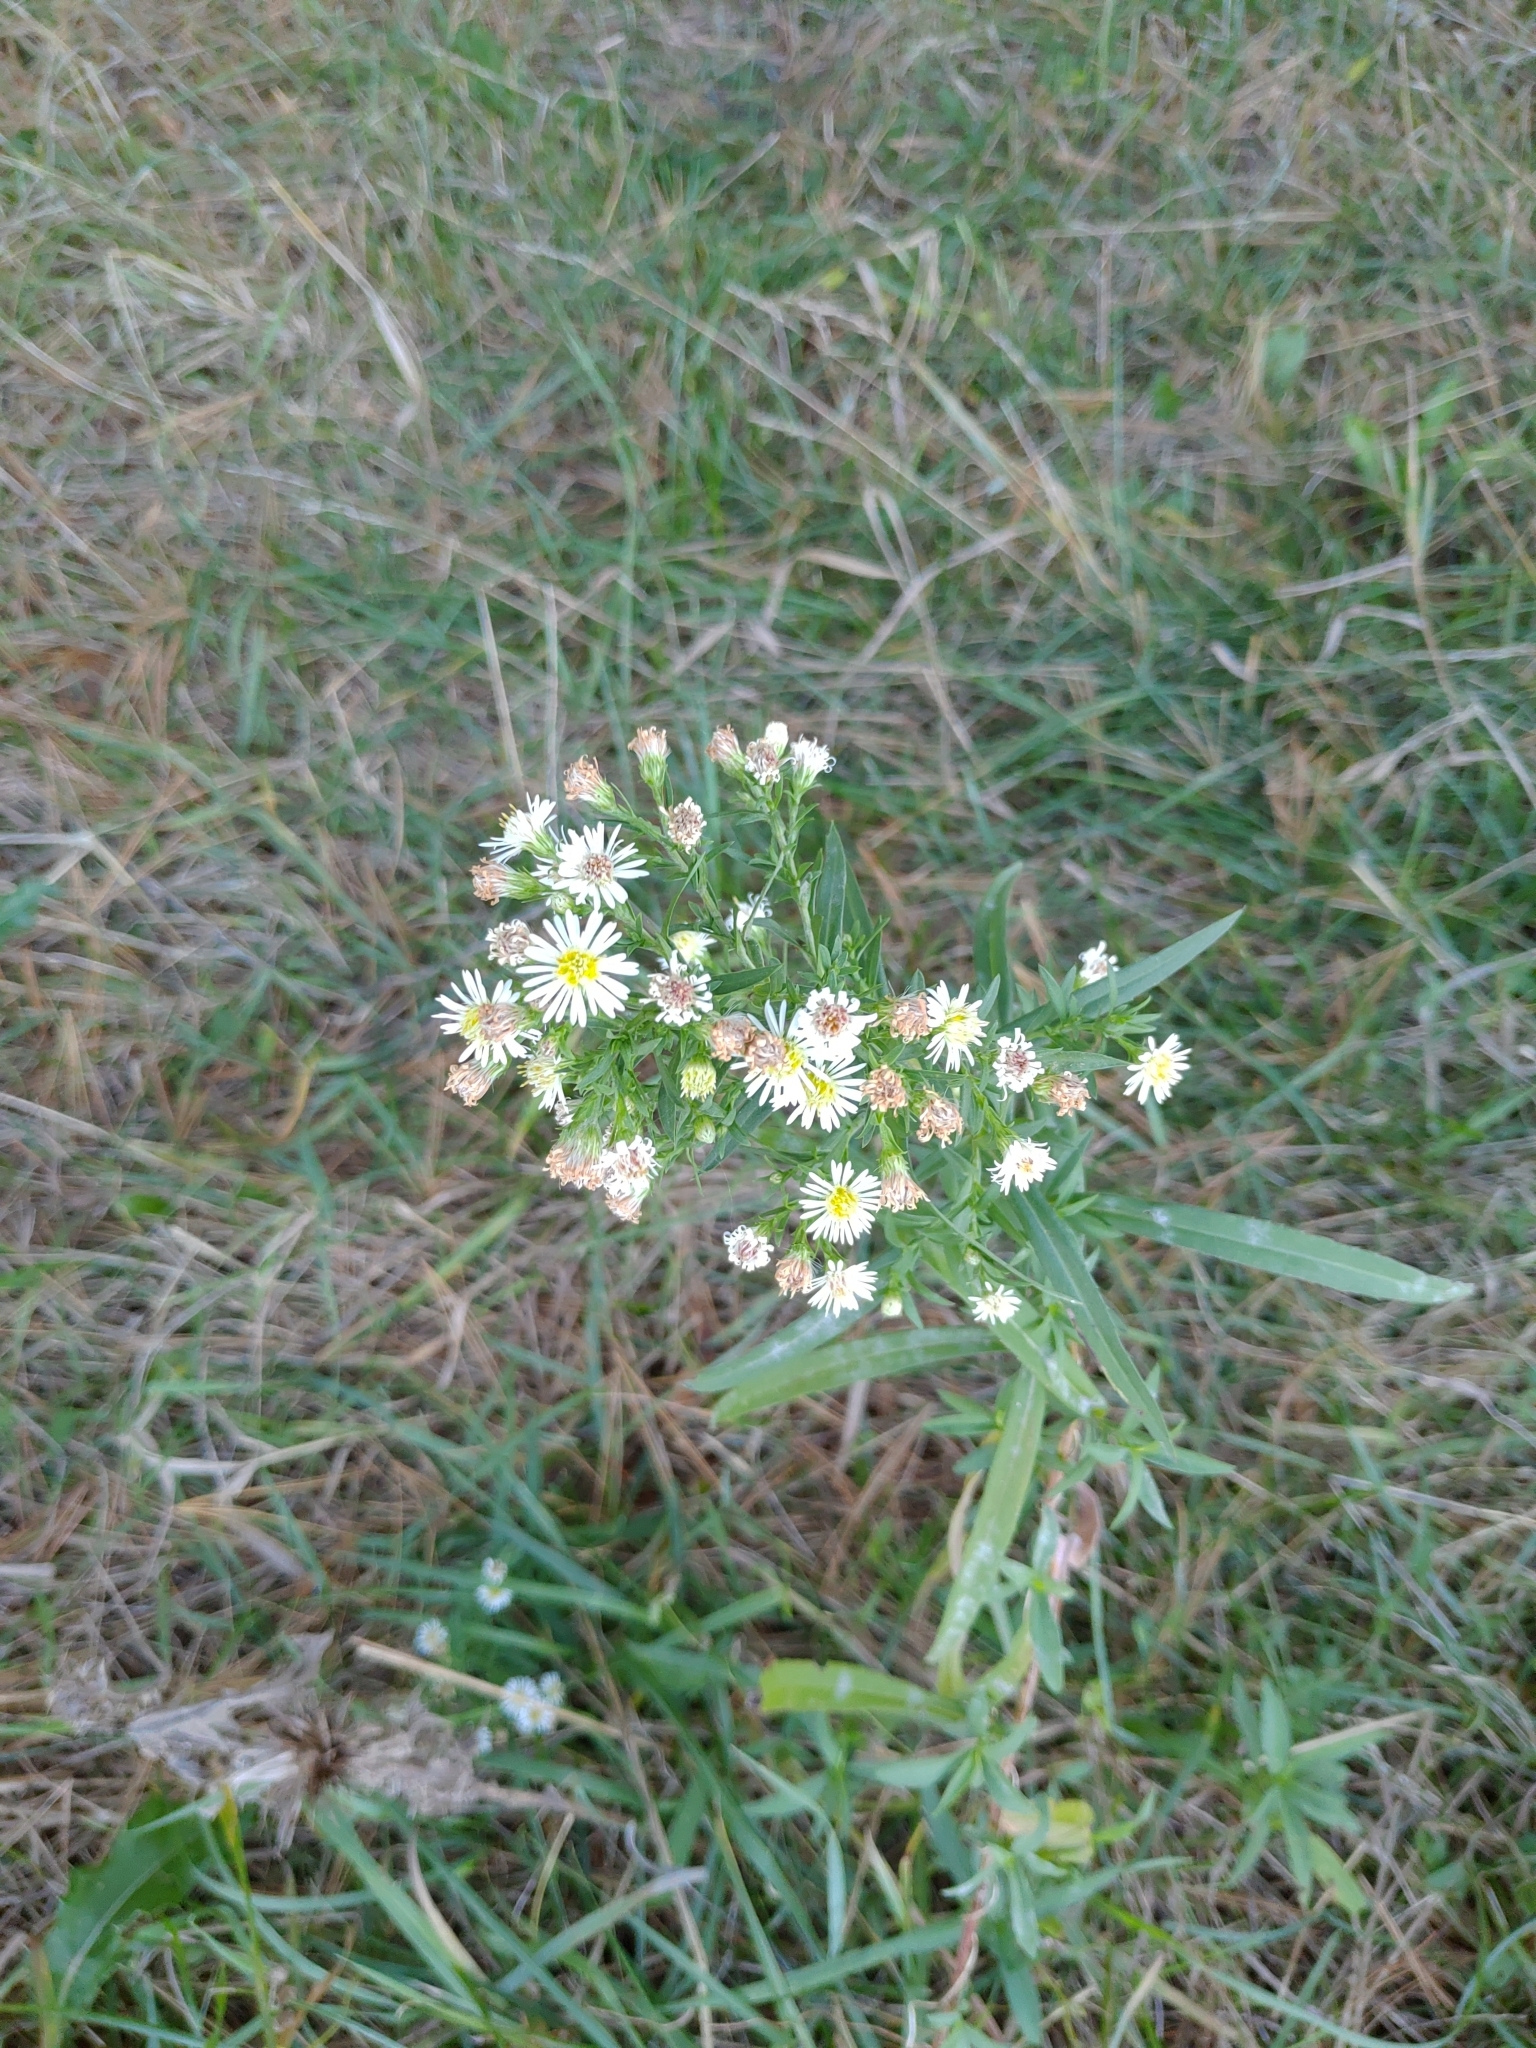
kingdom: Plantae
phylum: Tracheophyta
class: Magnoliopsida
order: Asterales
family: Asteraceae
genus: Symphyotrichum
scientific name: Symphyotrichum lanceolatum
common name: Panicled aster
